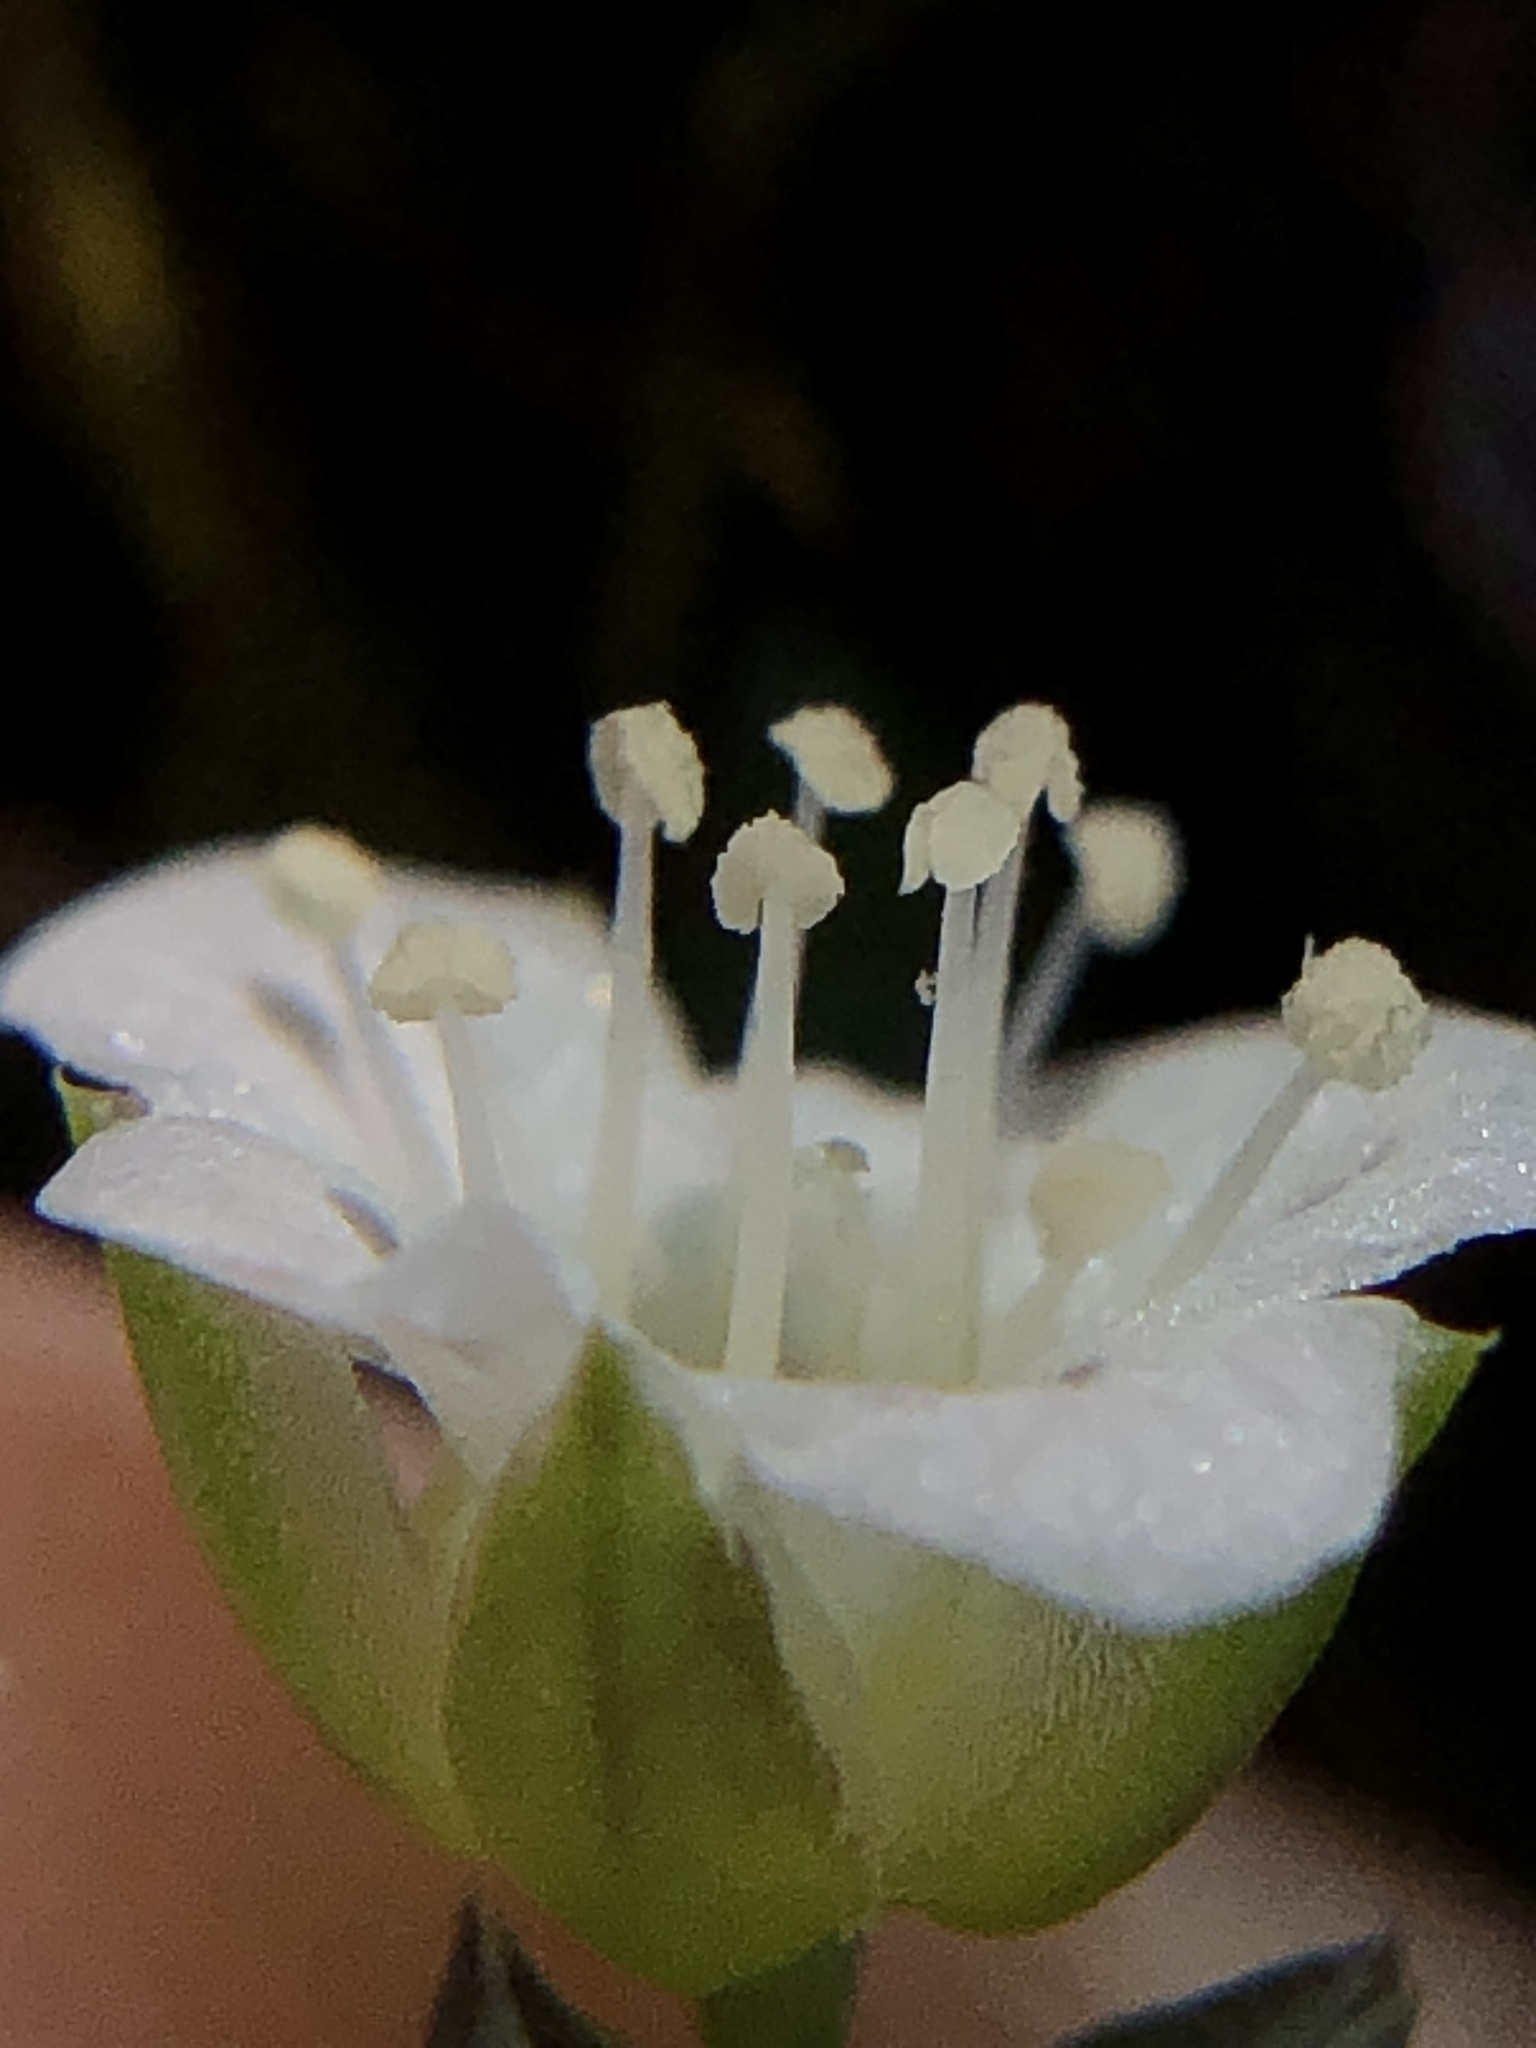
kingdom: Plantae
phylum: Tracheophyta
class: Magnoliopsida
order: Caryophyllales
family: Caryophyllaceae
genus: Moehringia
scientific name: Moehringia macrophylla
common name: Big-leaf sandwort
